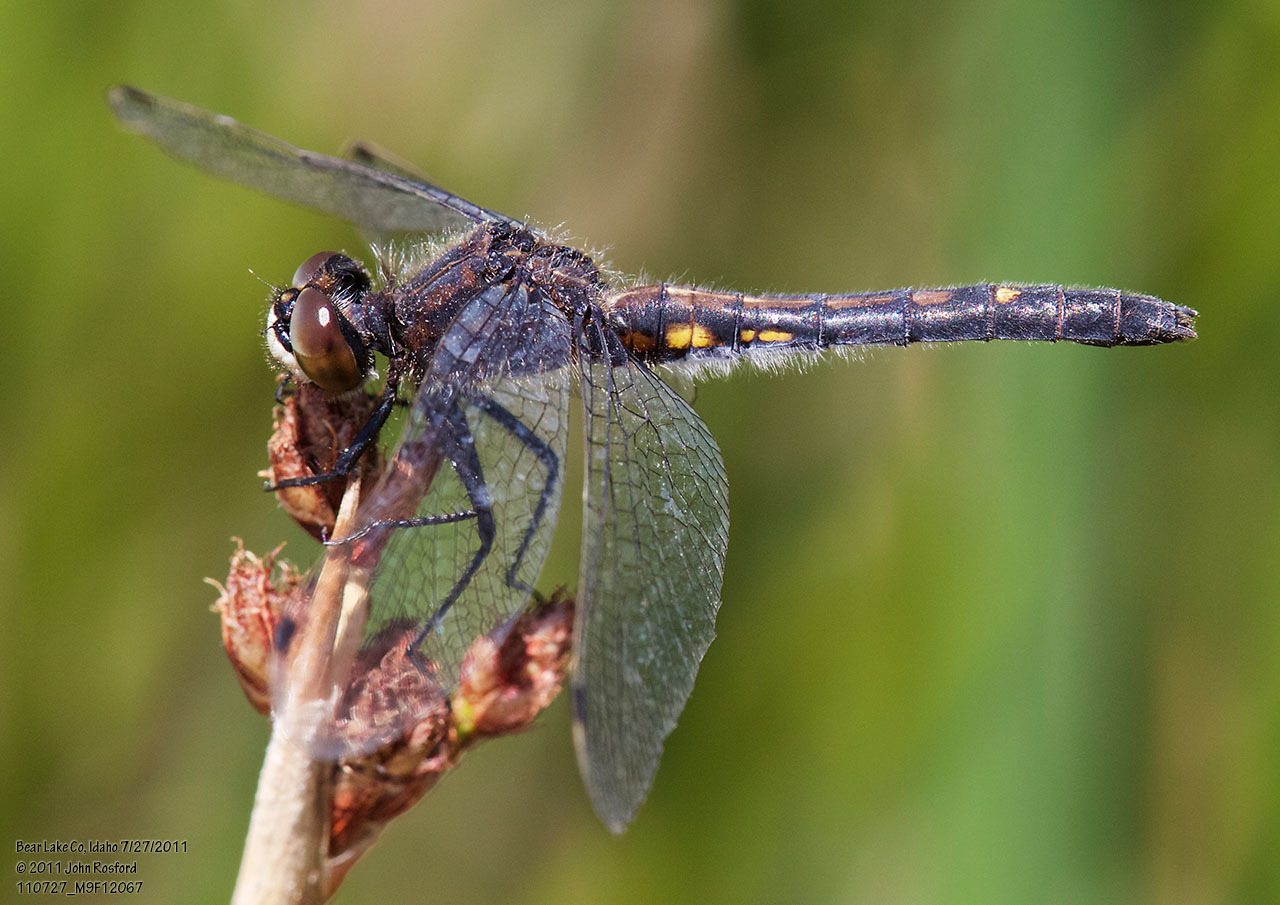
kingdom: Animalia
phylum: Arthropoda
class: Insecta
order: Odonata
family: Libellulidae
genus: Leucorrhinia
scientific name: Leucorrhinia intacta
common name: Dot-tailed whiteface
